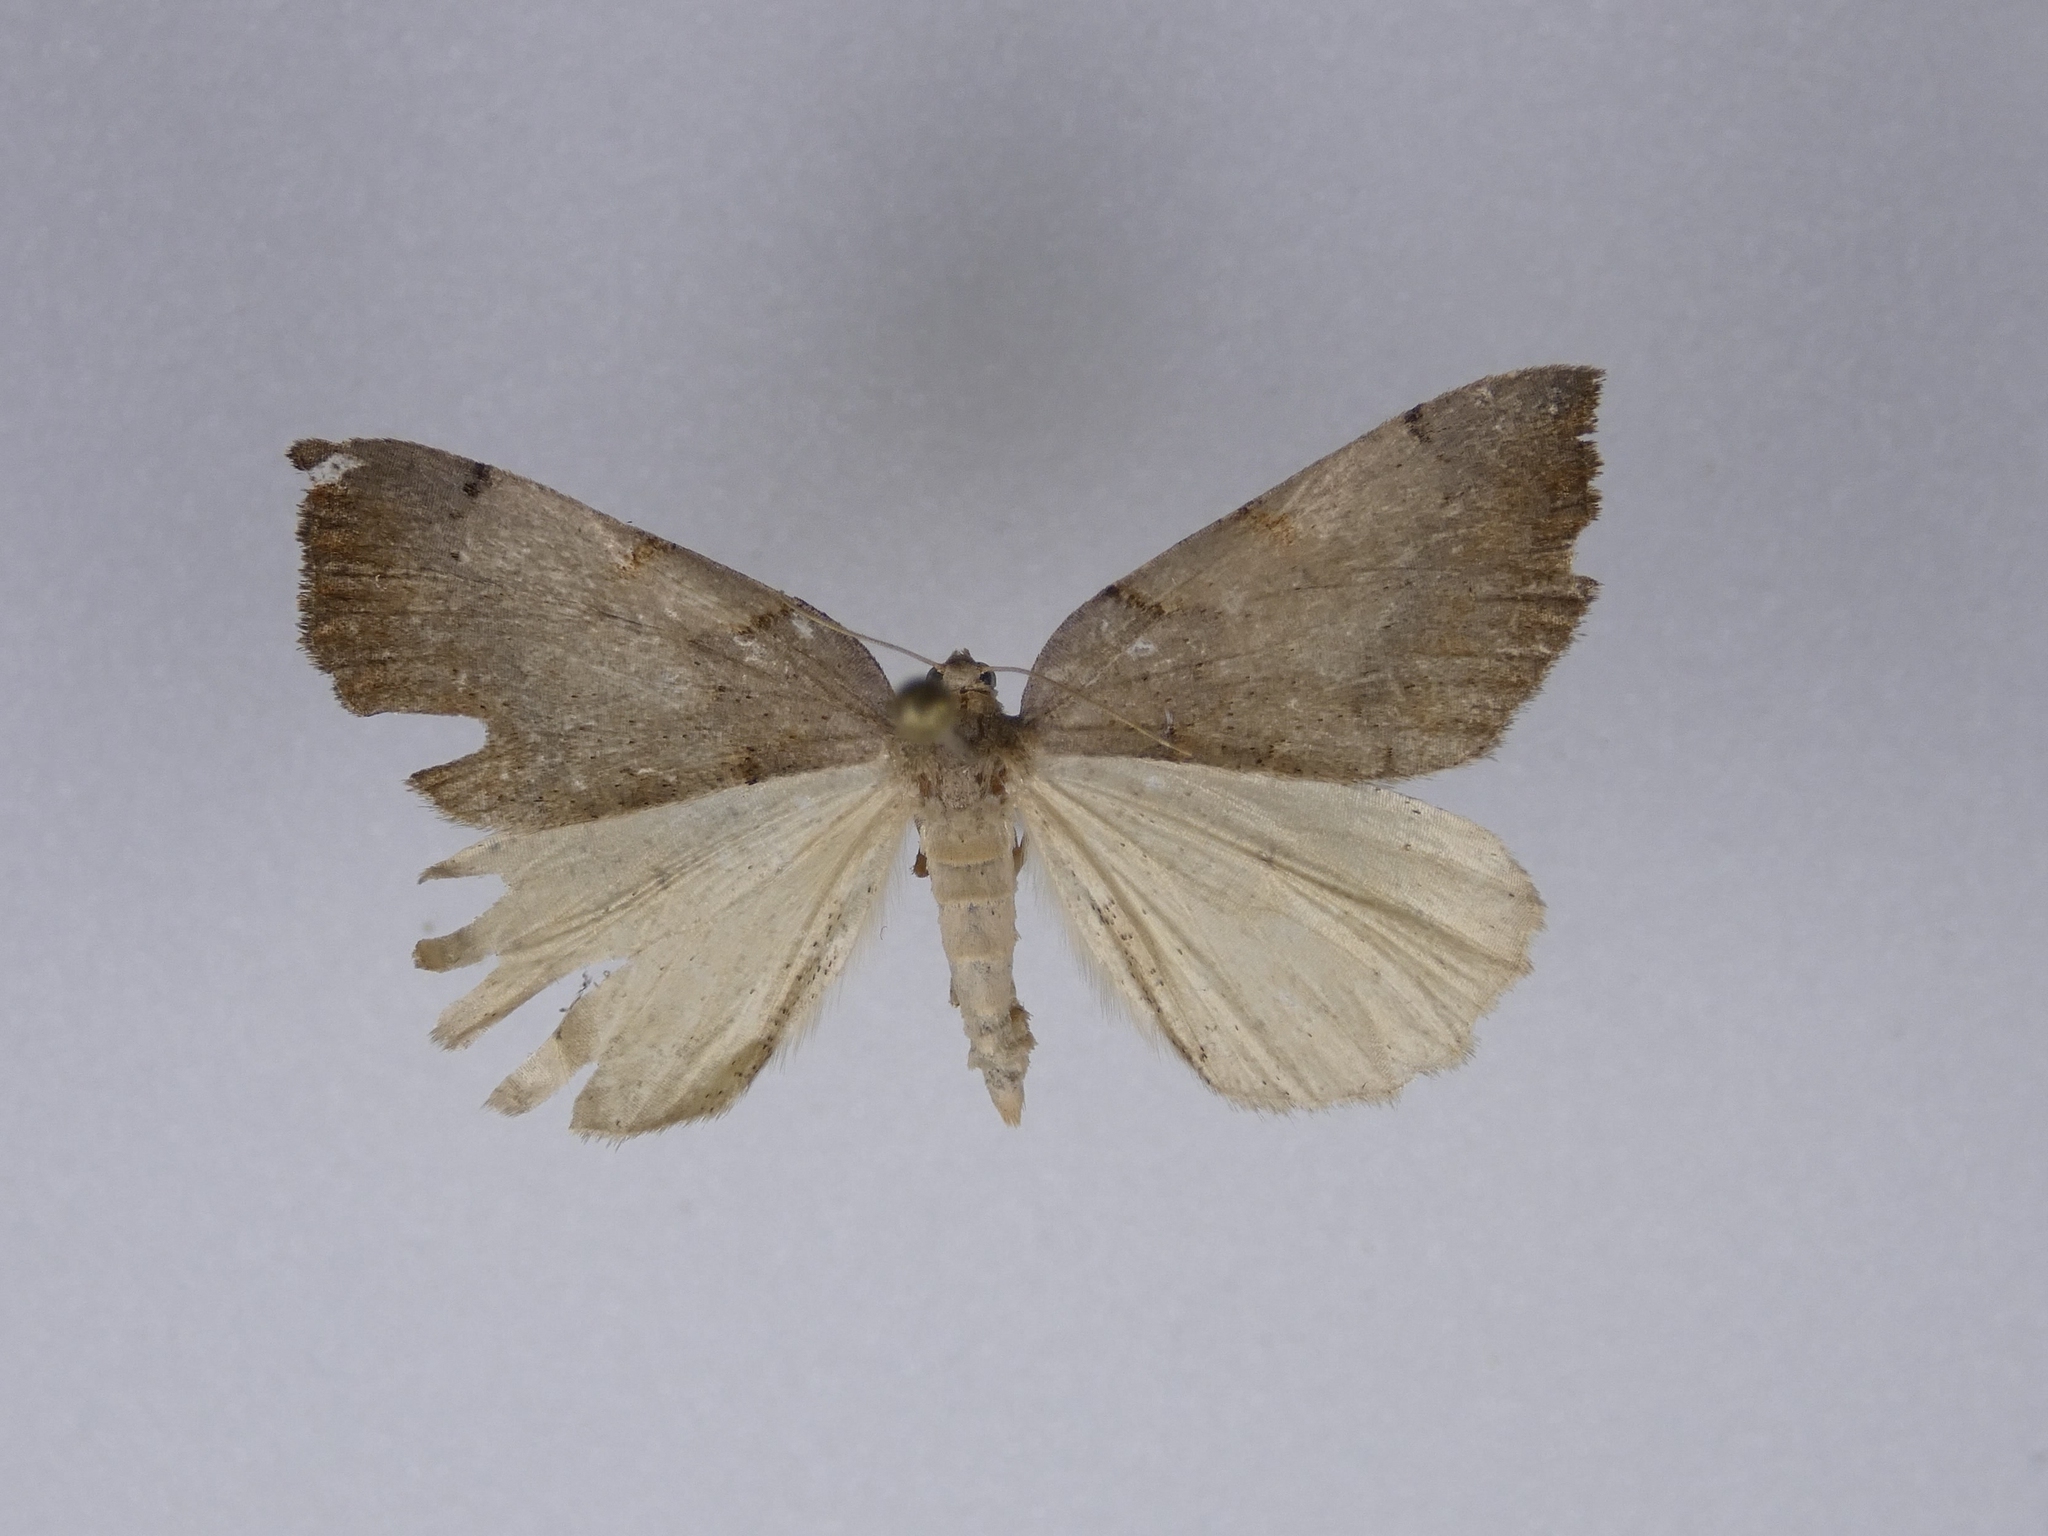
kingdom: Animalia
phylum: Arthropoda
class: Insecta
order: Lepidoptera
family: Geometridae
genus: Sestra
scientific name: Sestra flexata
